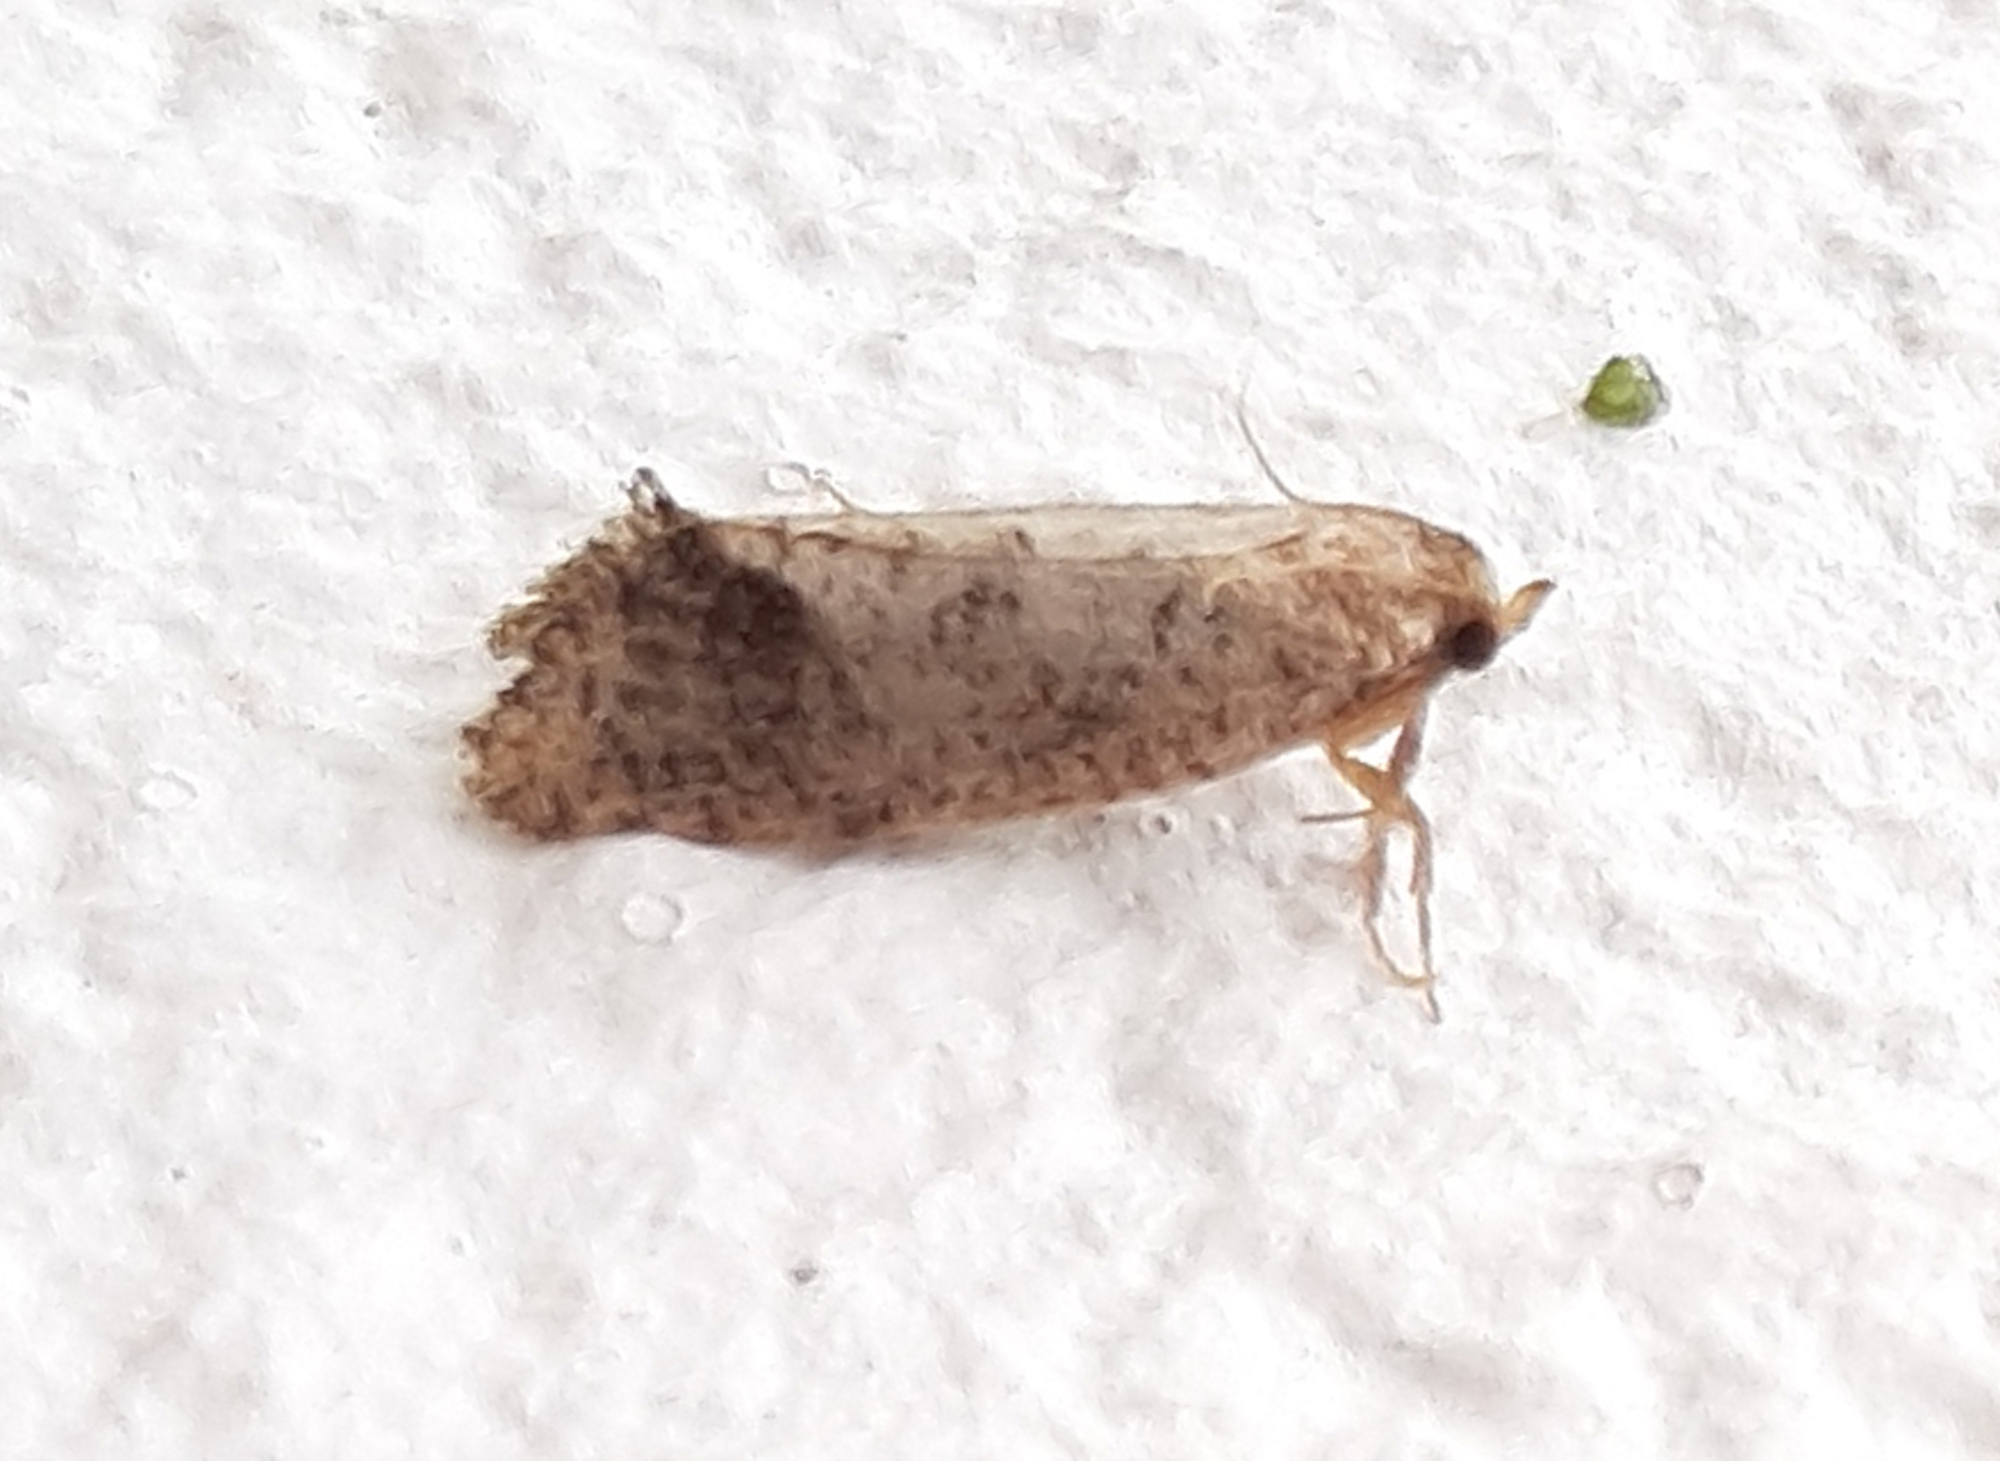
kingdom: Animalia
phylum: Arthropoda
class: Insecta
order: Lepidoptera
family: Tineidae
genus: Acrolophus
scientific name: Acrolophus texanella
